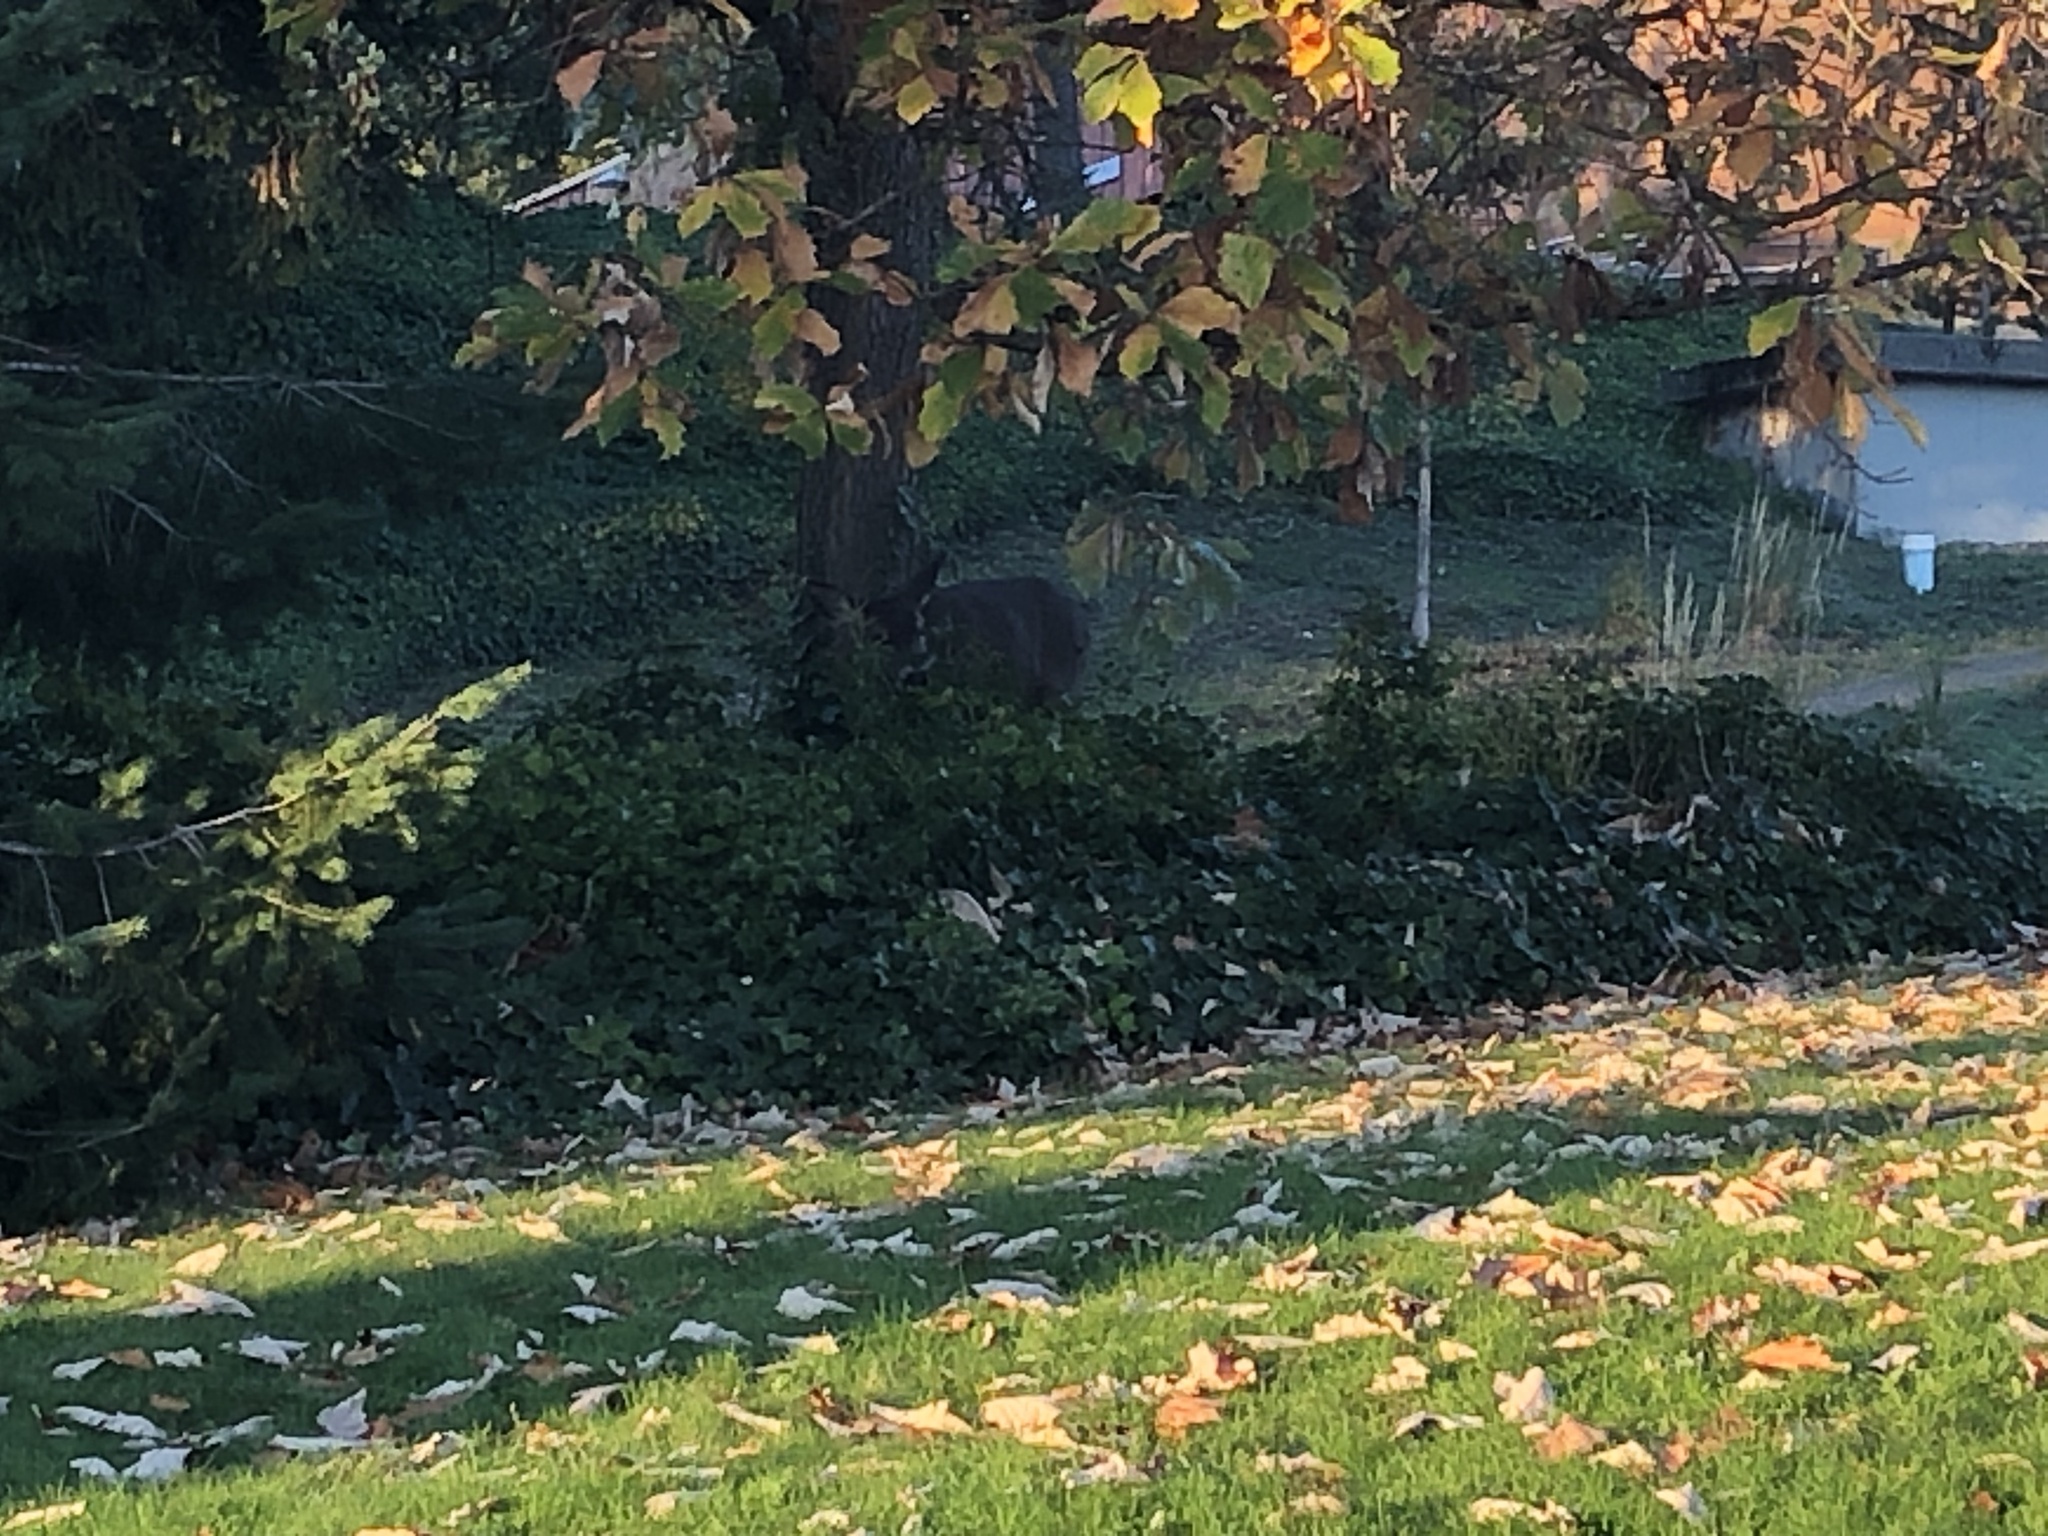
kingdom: Animalia
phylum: Chordata
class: Mammalia
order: Artiodactyla
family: Cervidae
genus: Odocoileus
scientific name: Odocoileus hemionus
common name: Mule deer
